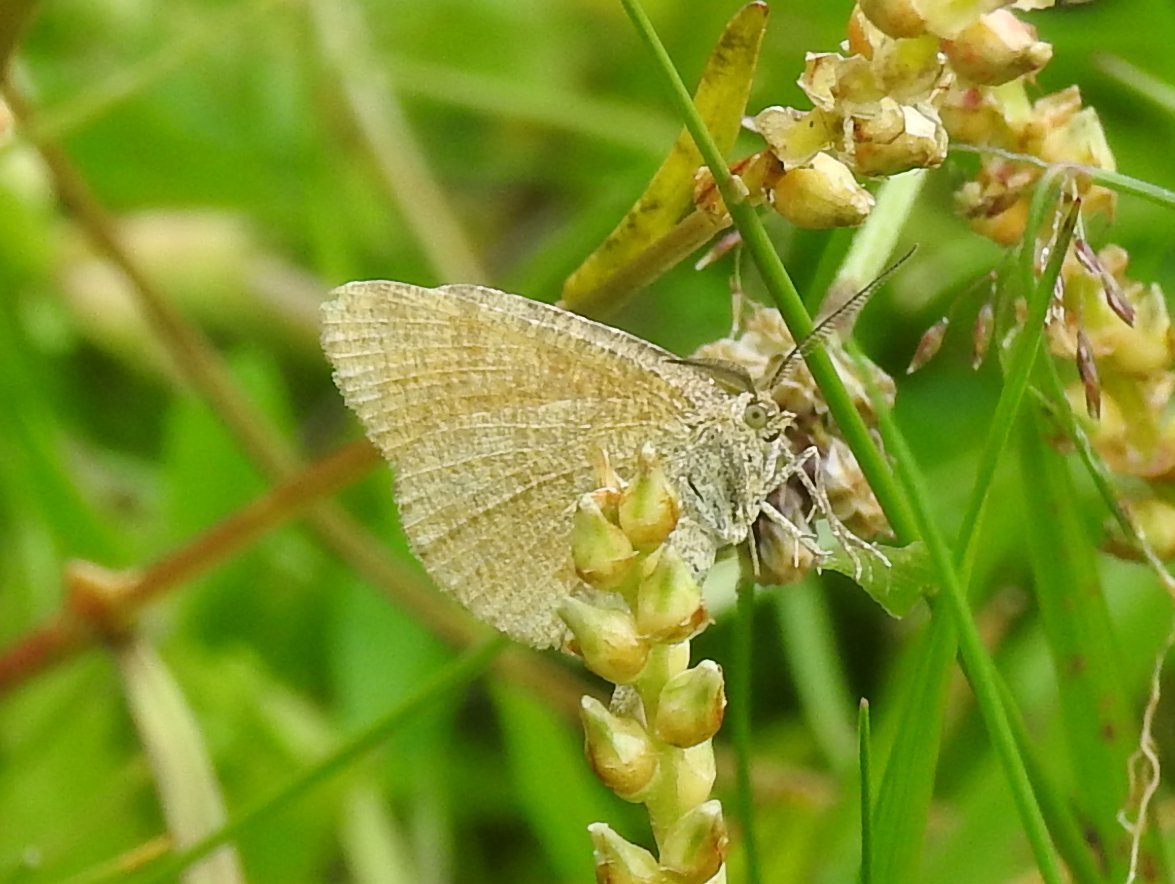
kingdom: Animalia
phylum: Arthropoda
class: Insecta
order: Lepidoptera
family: Geometridae
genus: Macaria
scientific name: Macaria brunneata
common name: Rannoch looper
